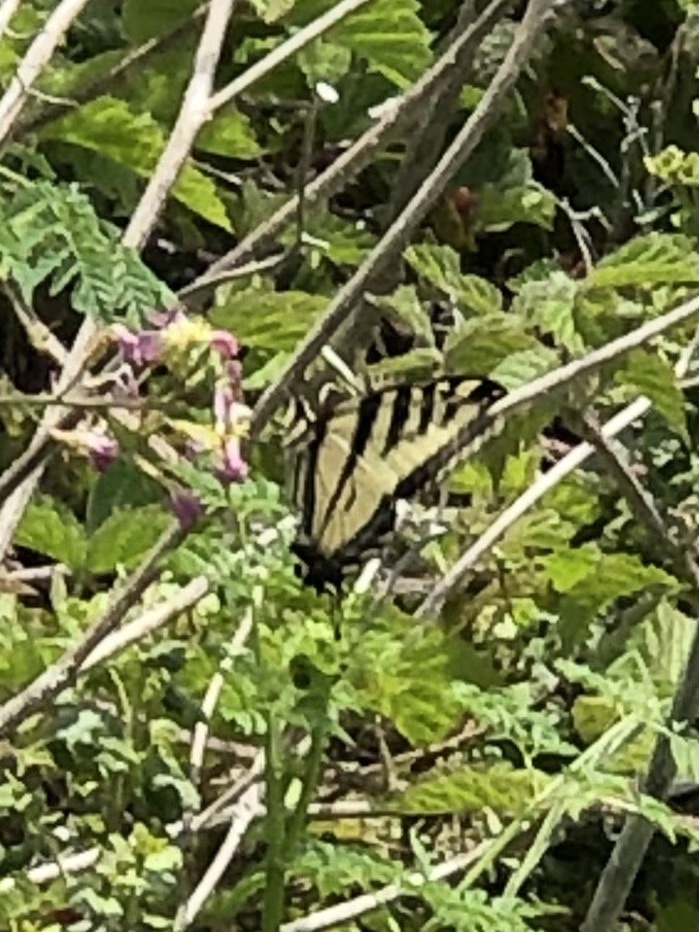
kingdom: Animalia
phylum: Arthropoda
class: Insecta
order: Lepidoptera
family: Papilionidae
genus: Papilio
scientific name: Papilio rutulus
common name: Western tiger swallowtail
